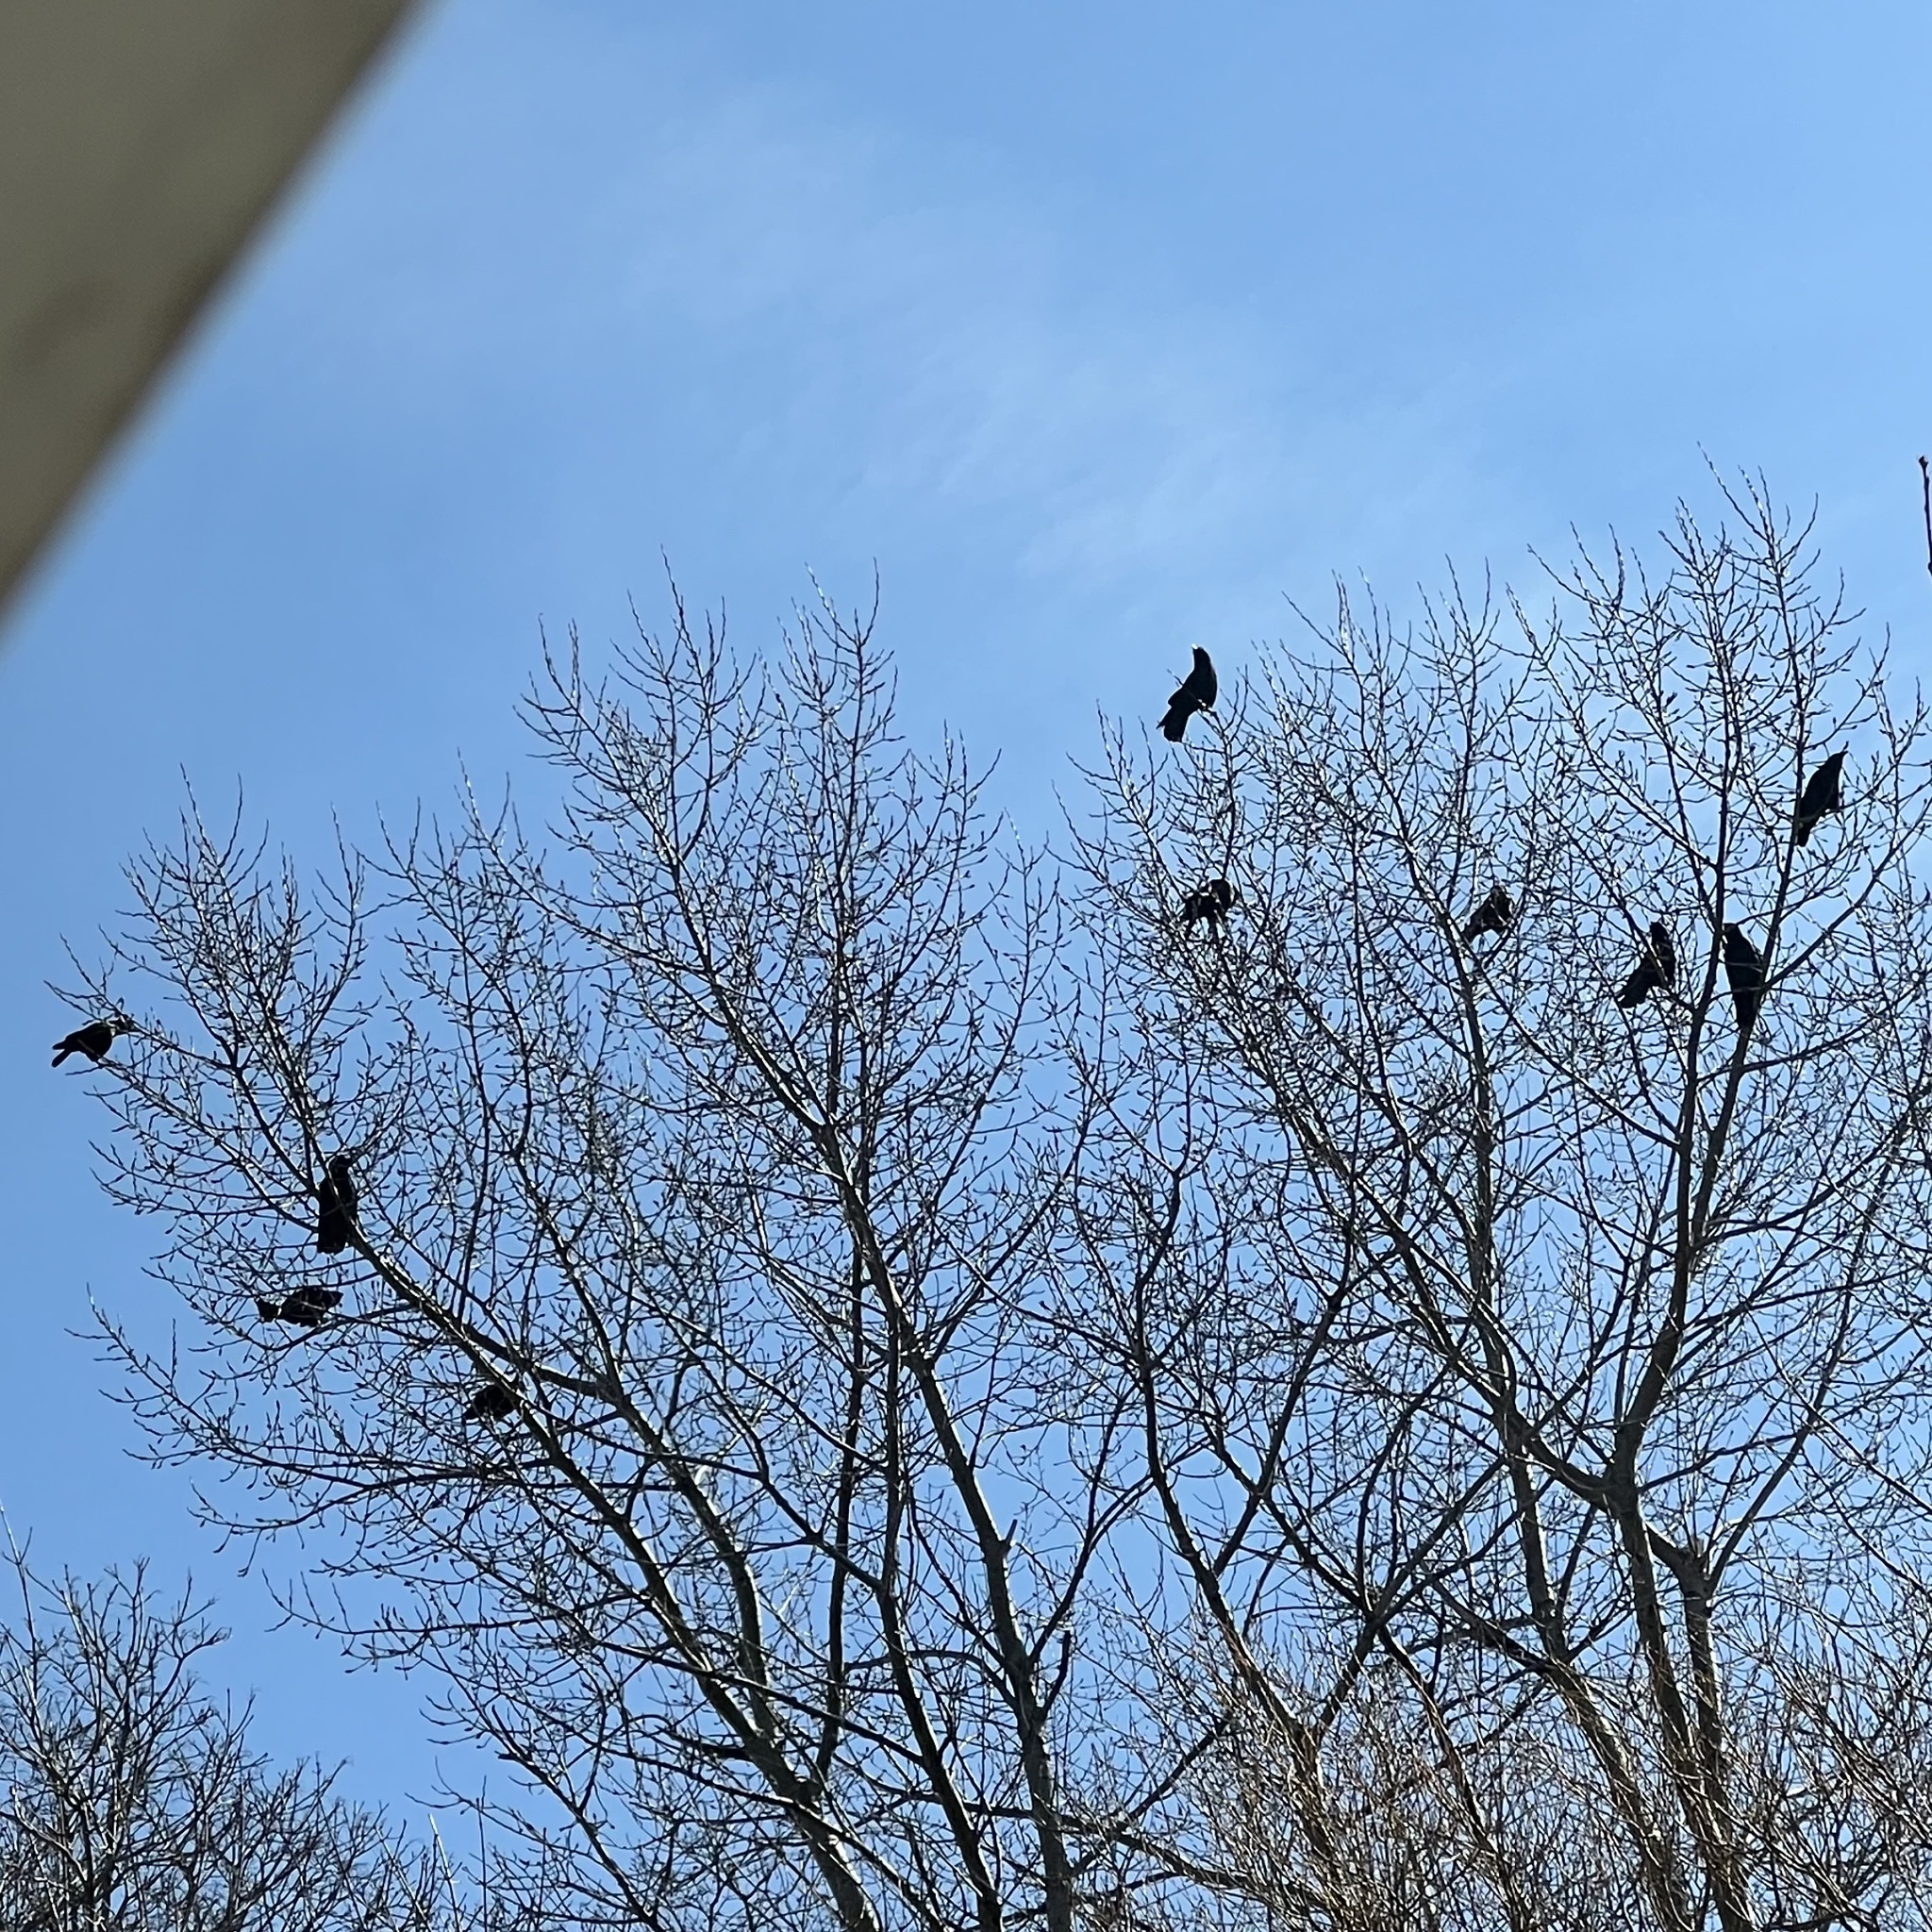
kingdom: Animalia
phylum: Chordata
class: Aves
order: Passeriformes
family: Corvidae
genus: Corvus
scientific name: Corvus brachyrhynchos
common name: American crow
